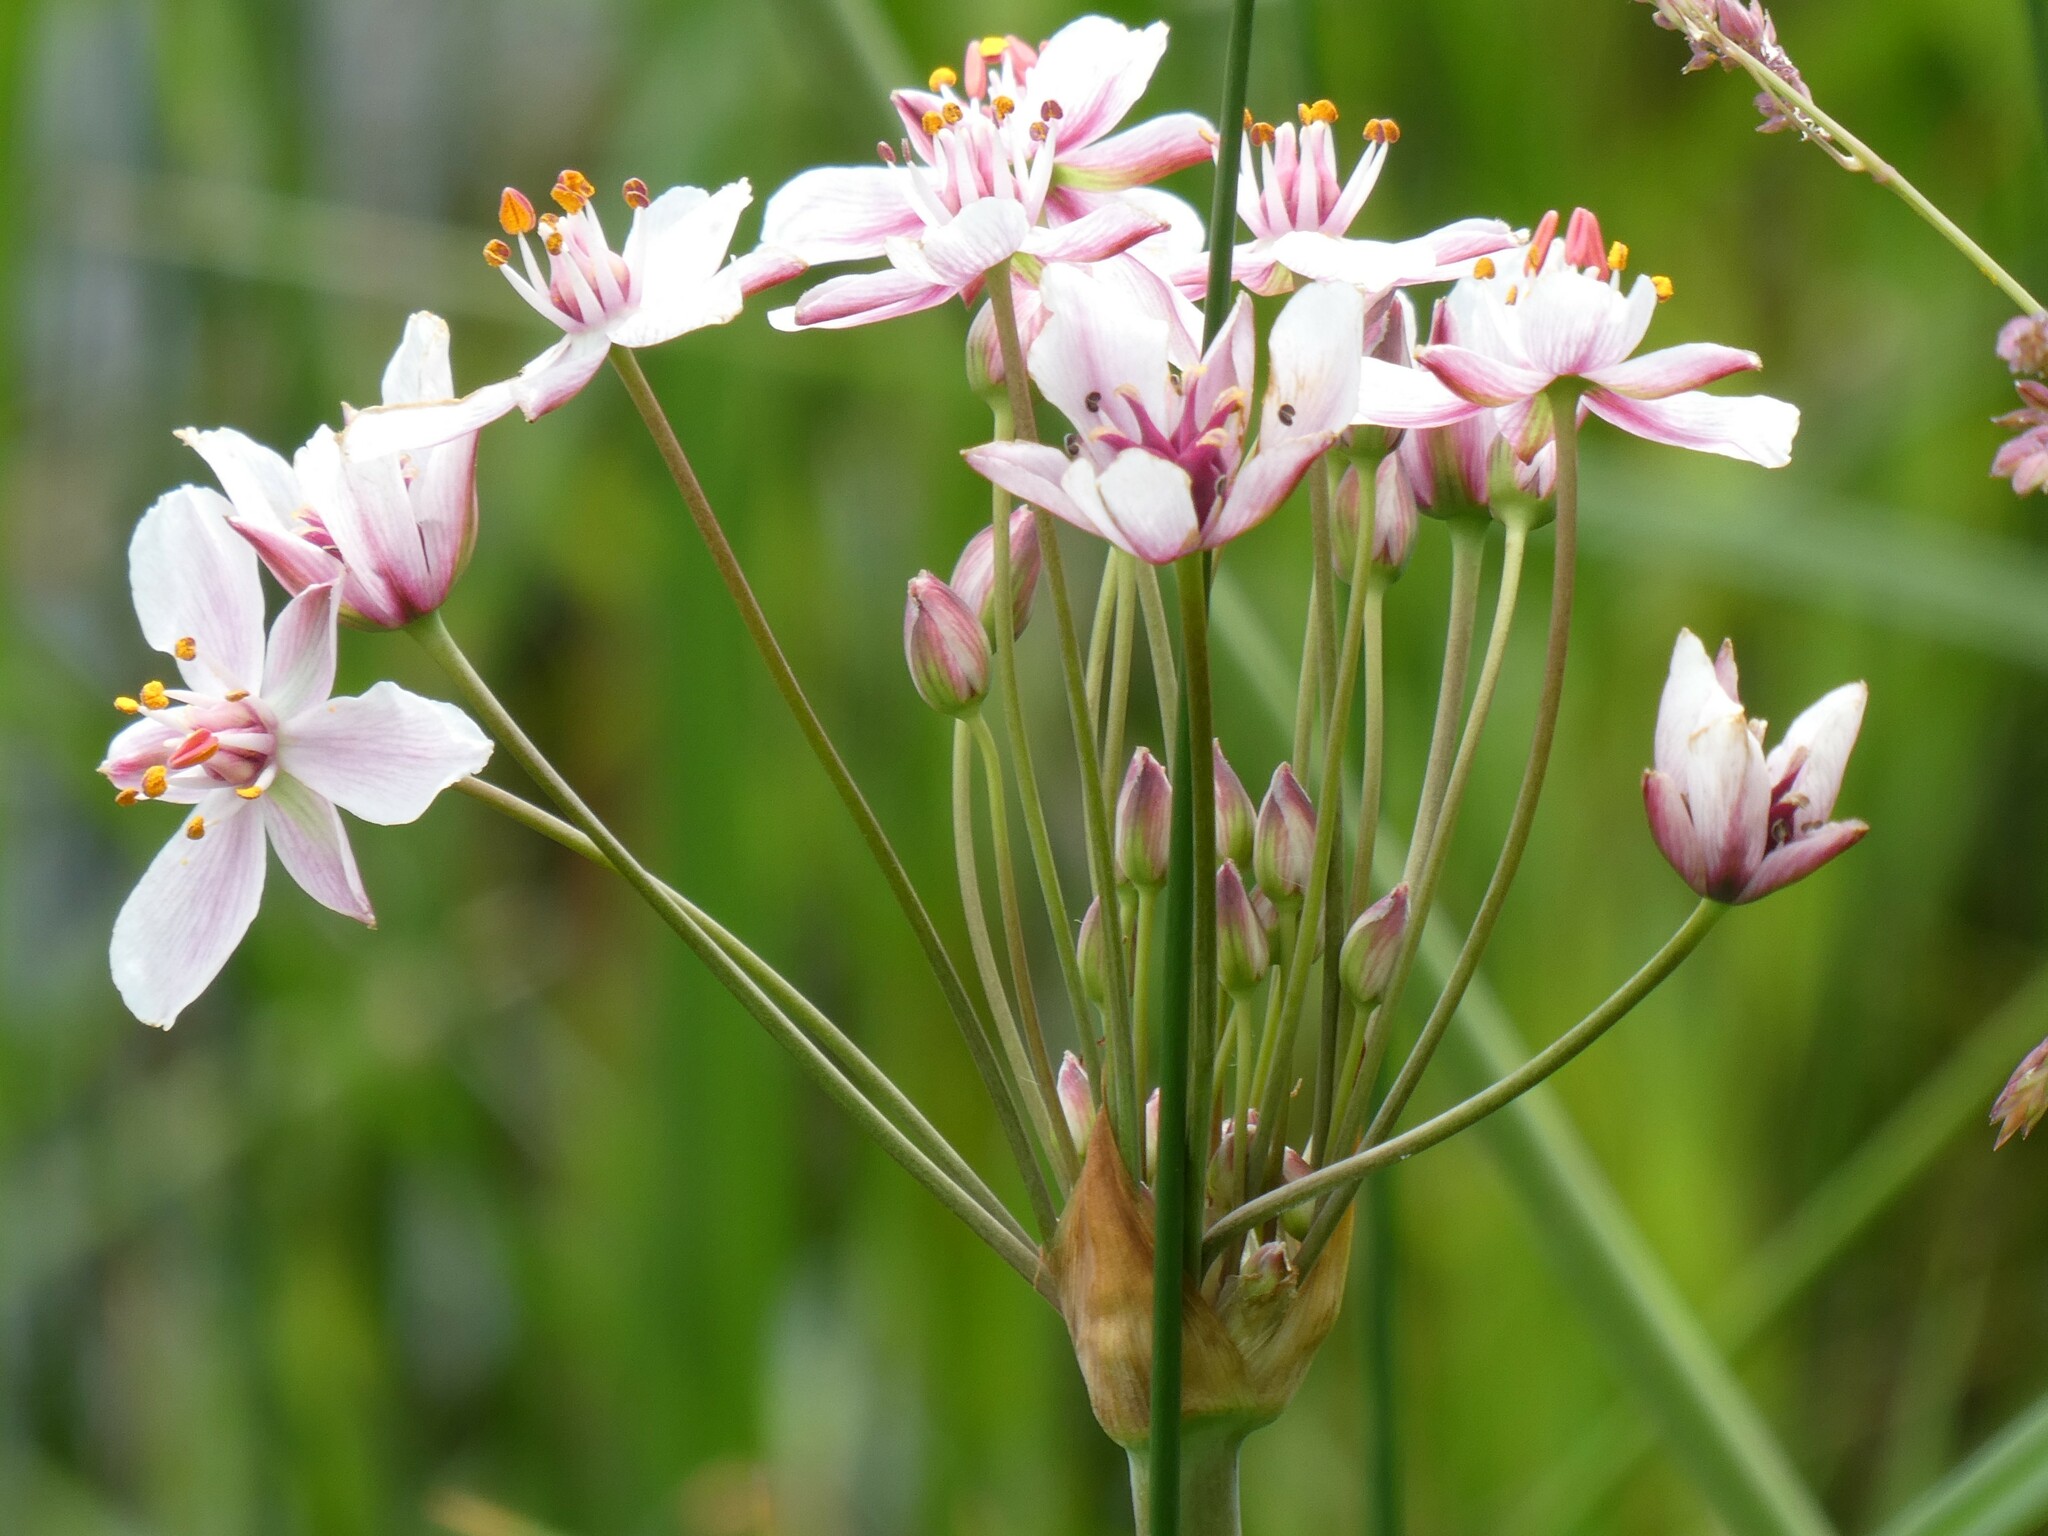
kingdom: Plantae
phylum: Tracheophyta
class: Liliopsida
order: Alismatales
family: Butomaceae
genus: Butomus
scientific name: Butomus umbellatus
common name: Flowering-rush
